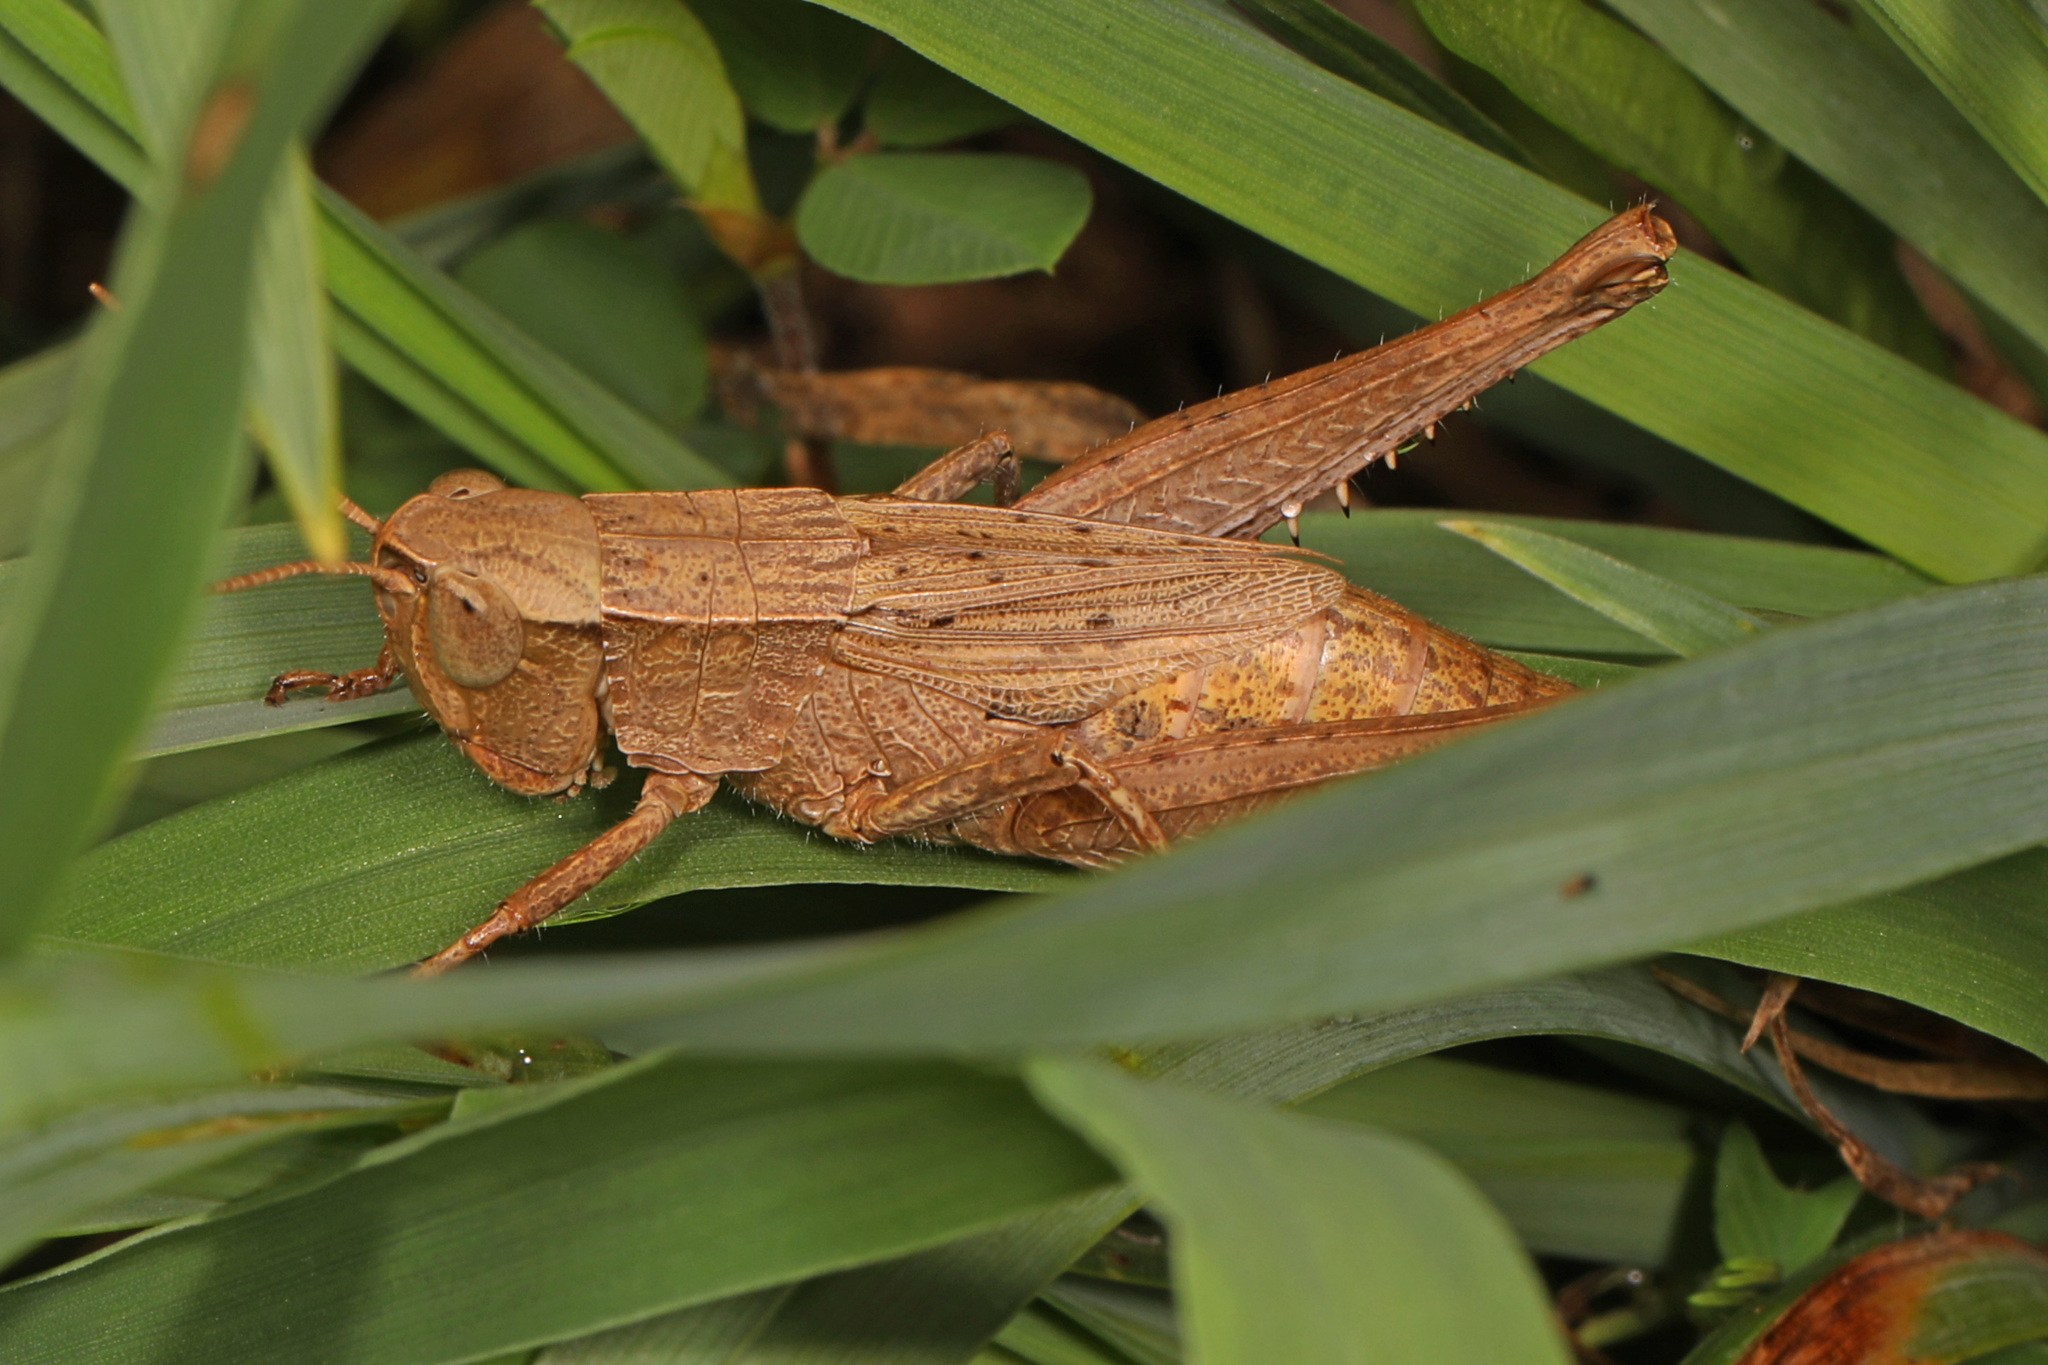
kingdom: Animalia
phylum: Arthropoda
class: Insecta
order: Orthoptera
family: Acrididae
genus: Dichromorpha
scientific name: Dichromorpha viridis
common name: Short-winged green grasshopper
